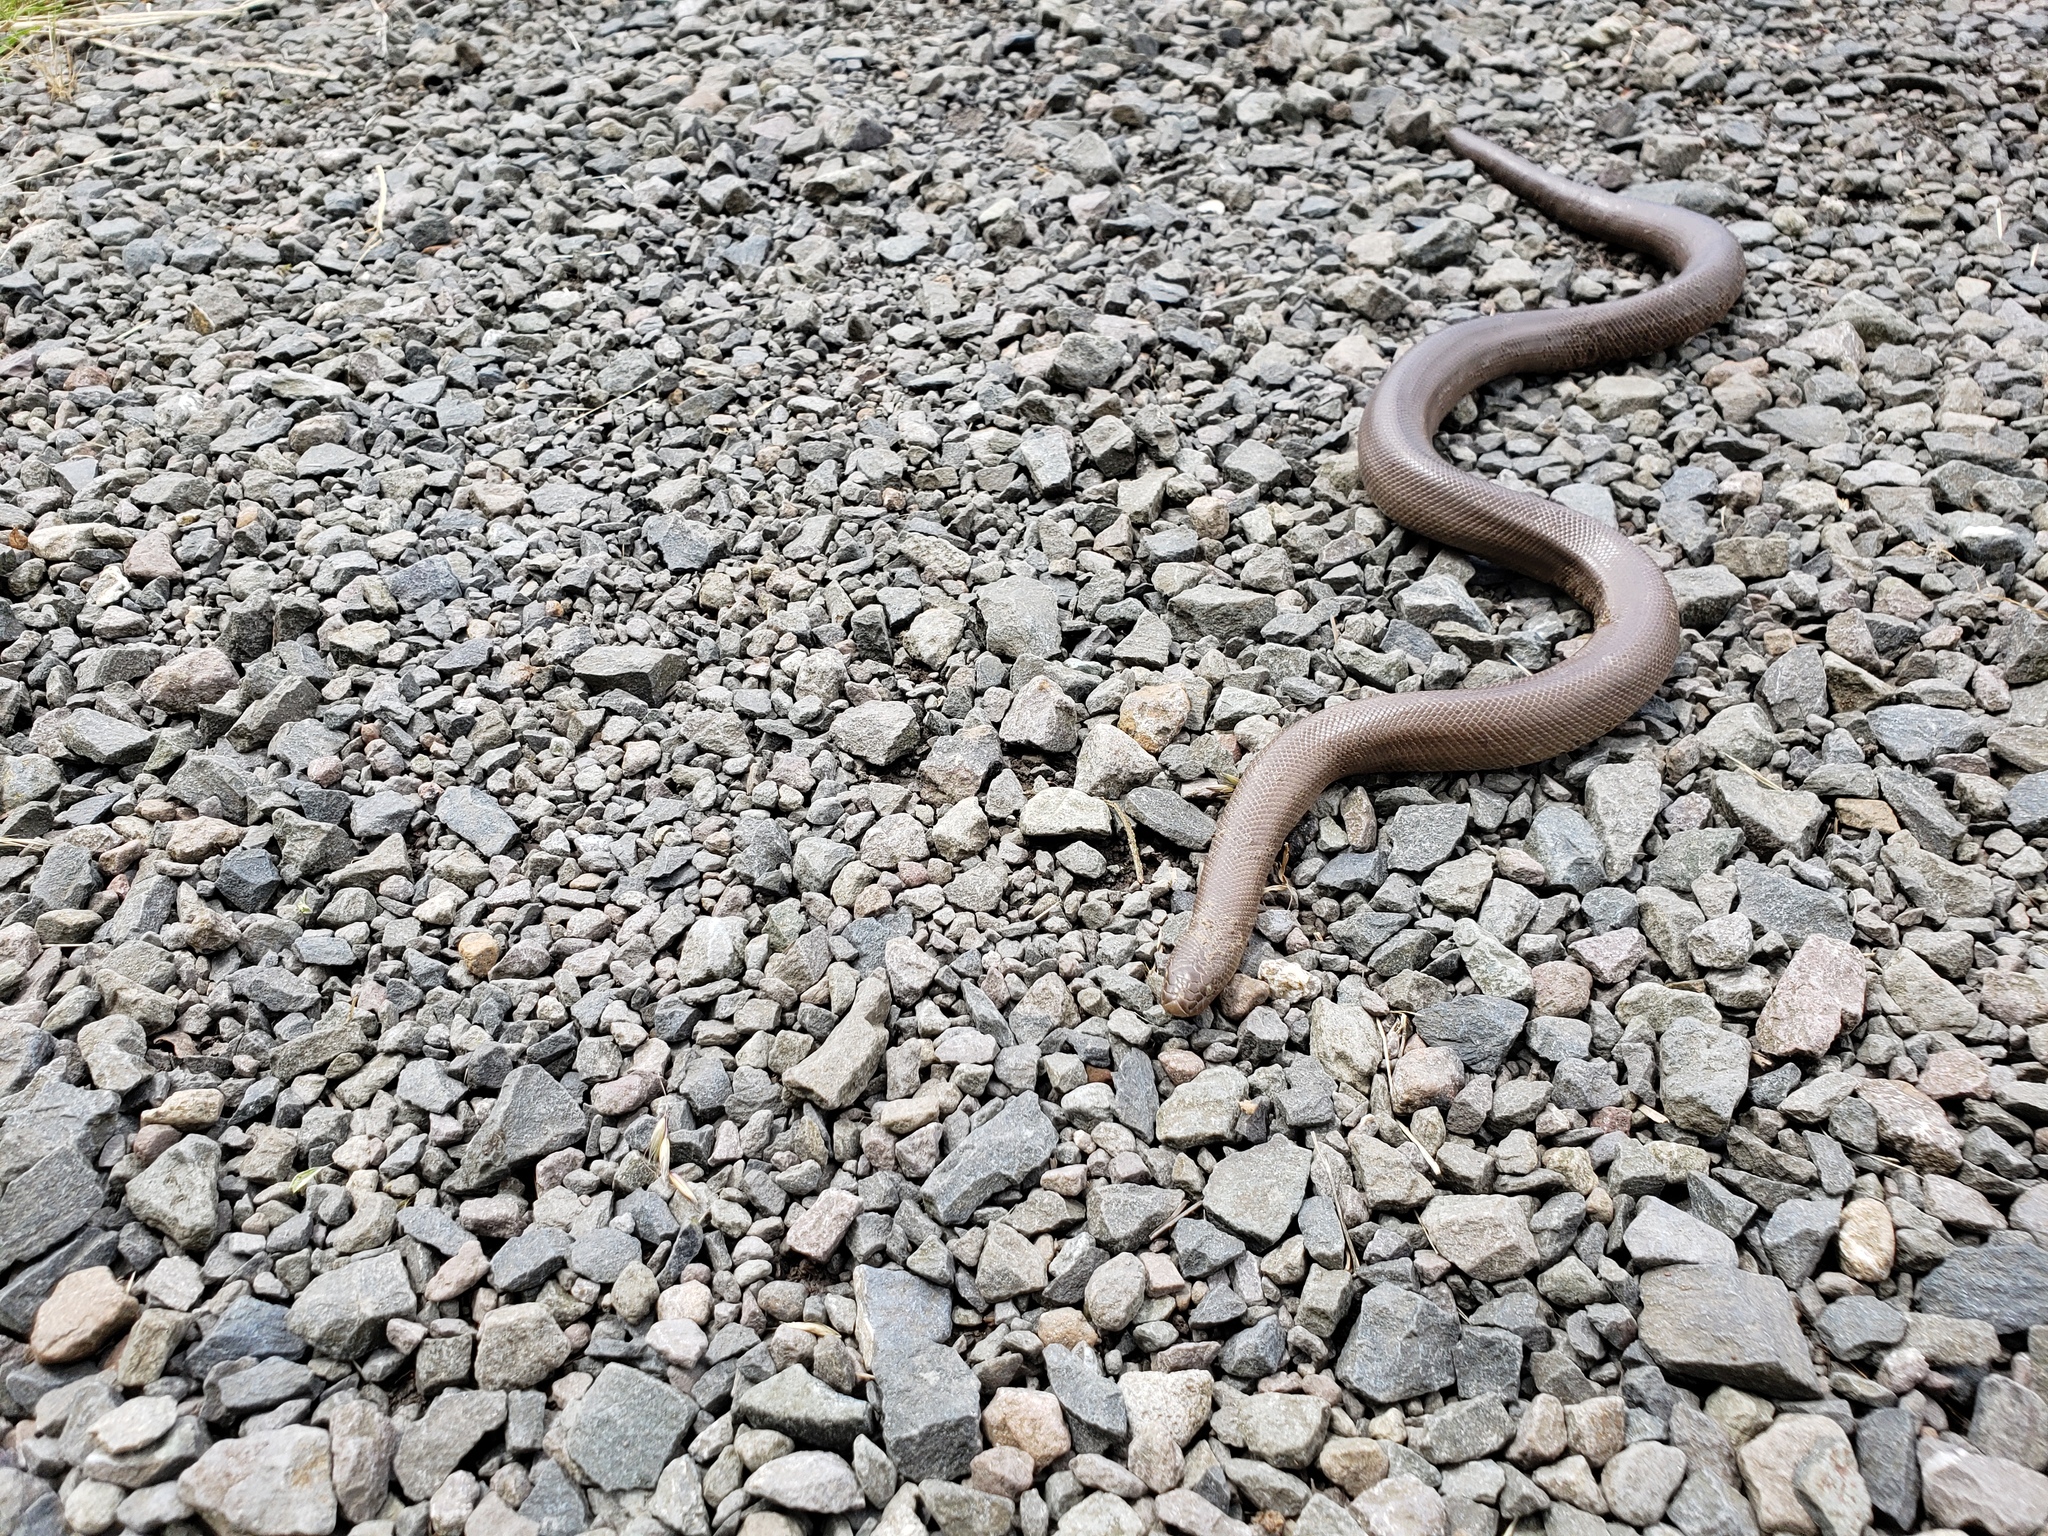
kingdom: Animalia
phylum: Chordata
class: Squamata
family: Boidae
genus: Charina
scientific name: Charina bottae
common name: Northern rubber boa
